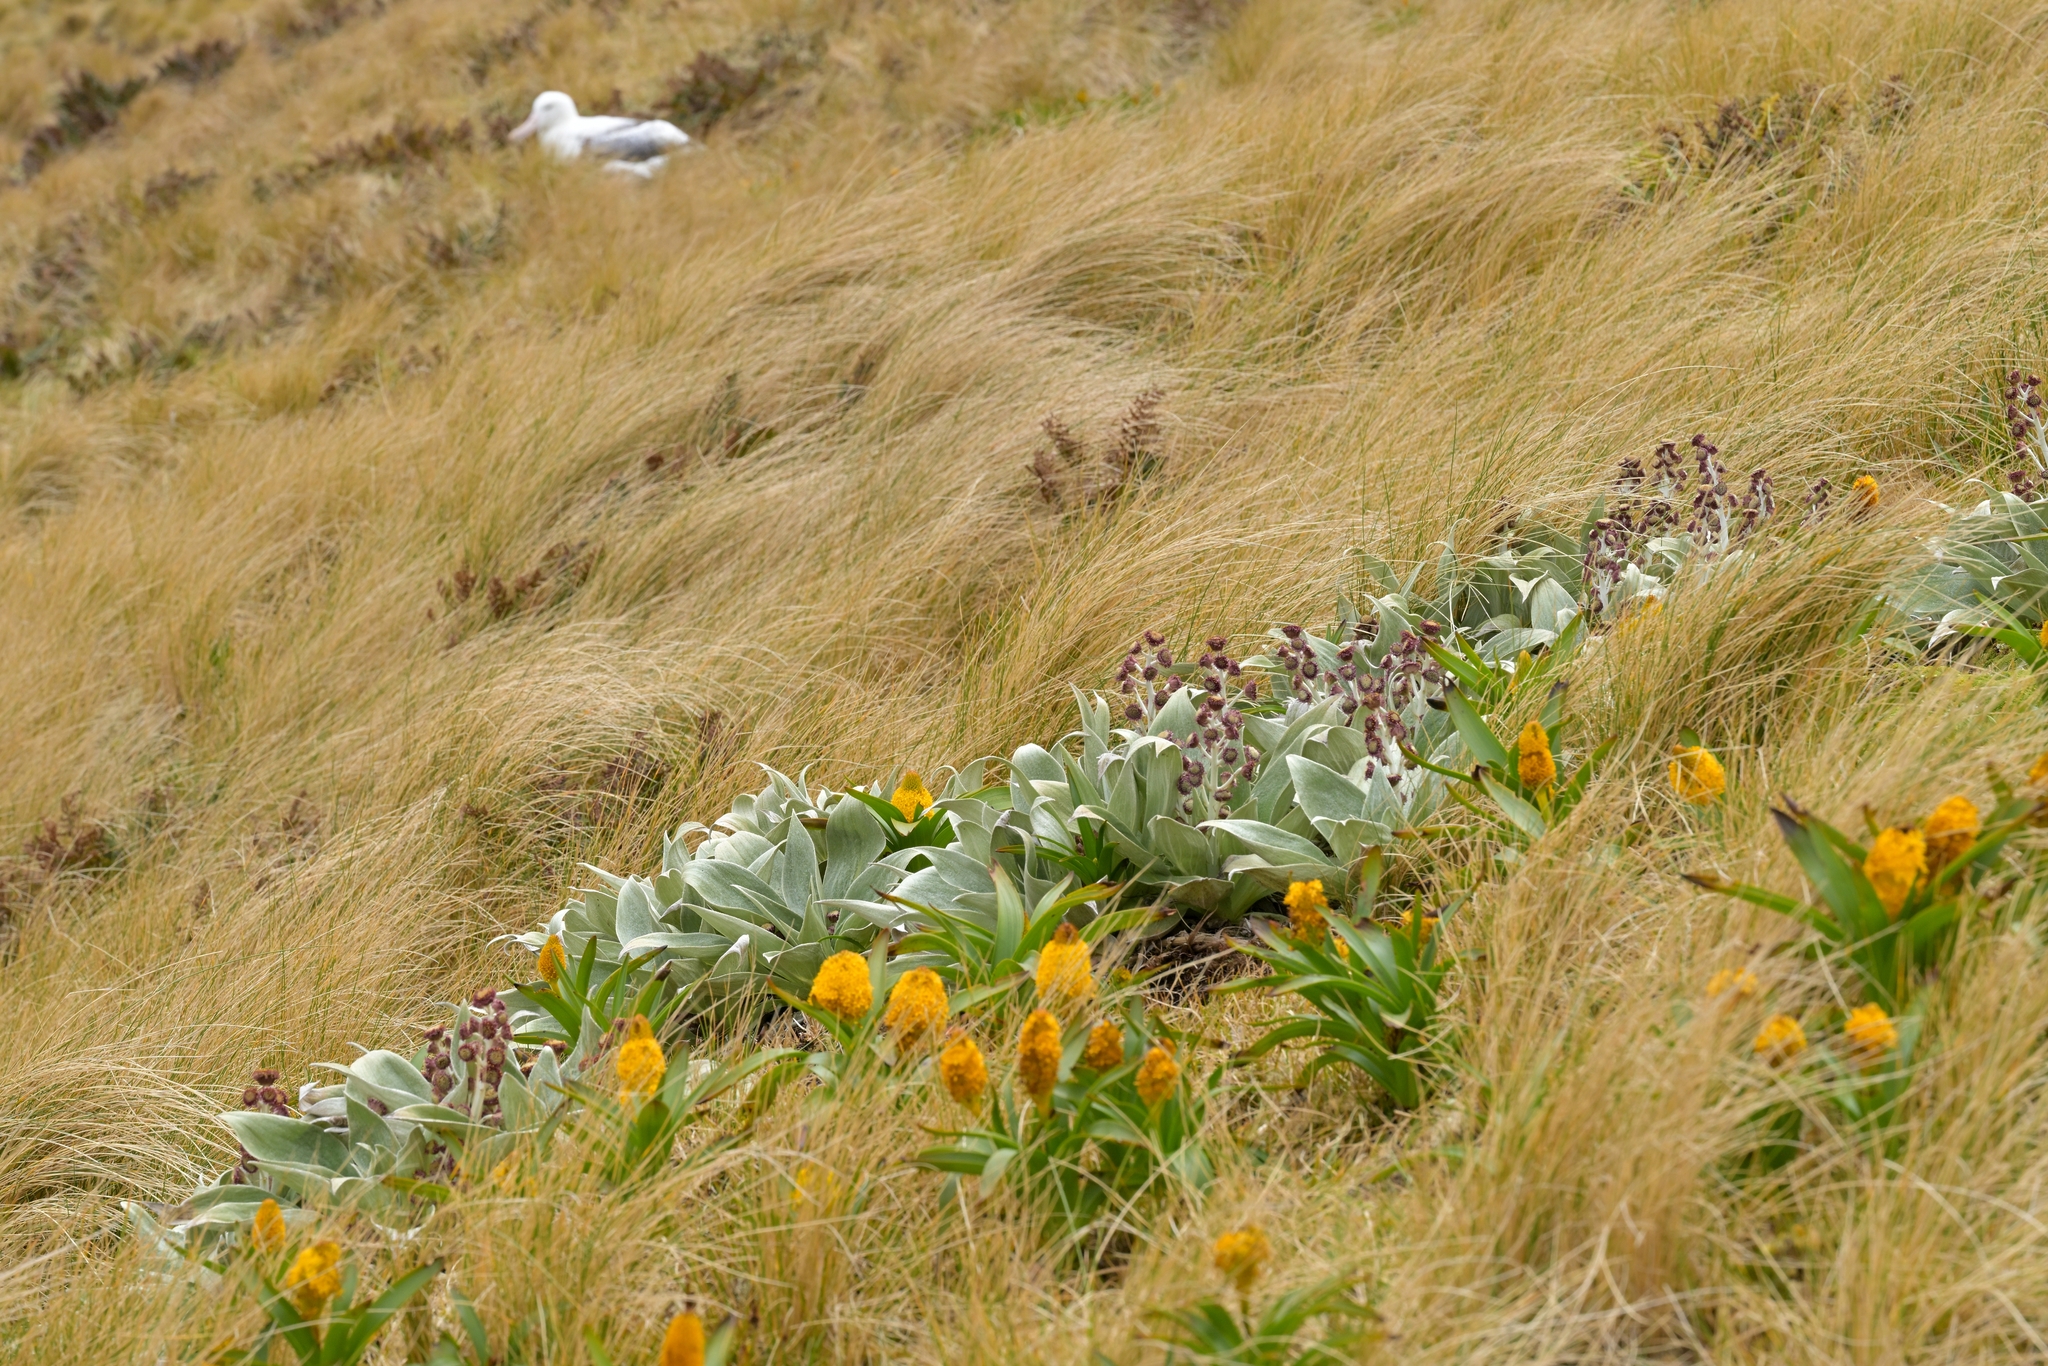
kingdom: Plantae
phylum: Tracheophyta
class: Magnoliopsida
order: Asterales
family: Asteraceae
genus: Pleurophyllum
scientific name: Pleurophyllum hookeri
